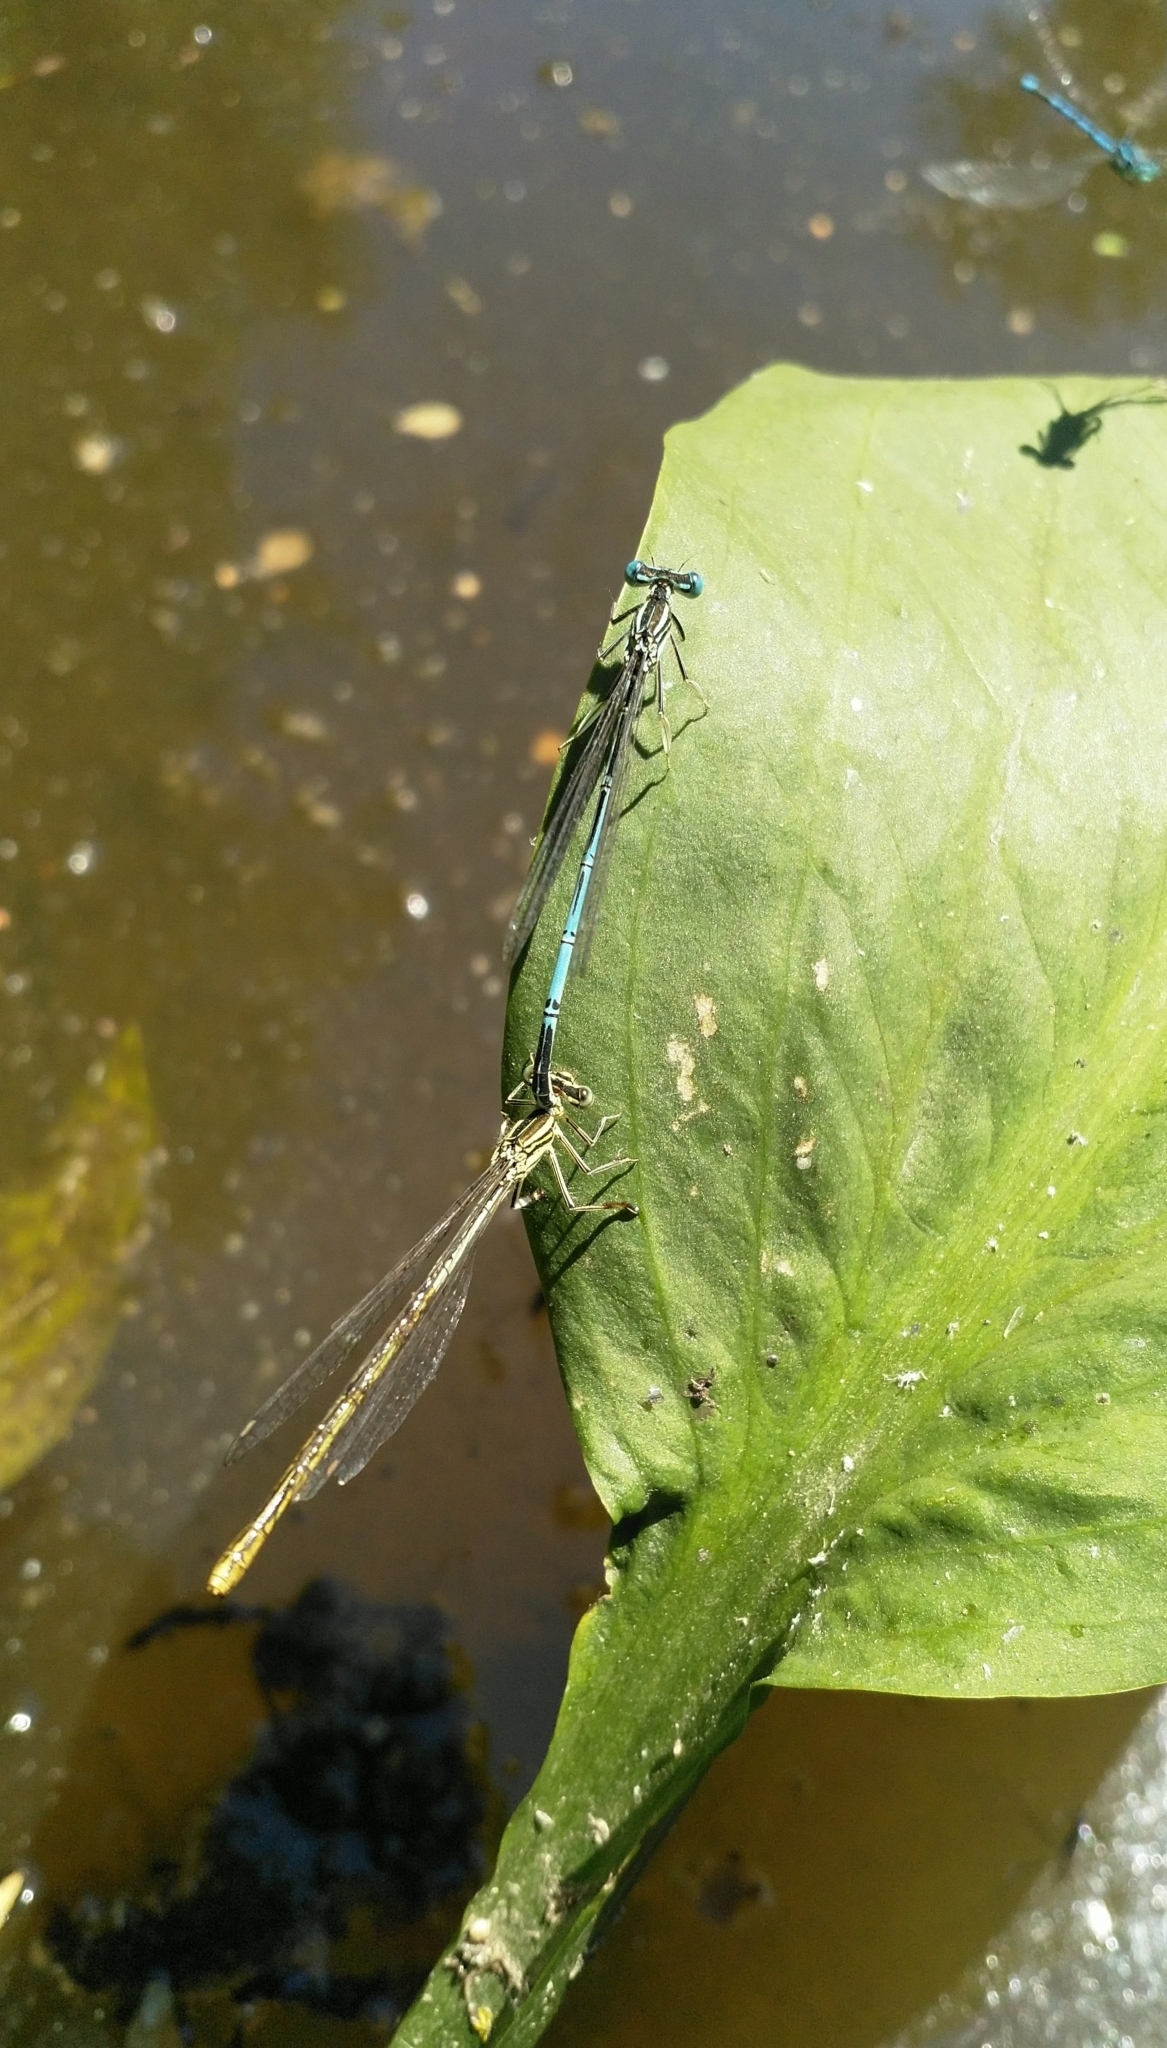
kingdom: Animalia
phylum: Arthropoda
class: Insecta
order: Odonata
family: Platycnemididae
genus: Platycnemis
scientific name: Platycnemis pennipes
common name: White-legged damselfly
